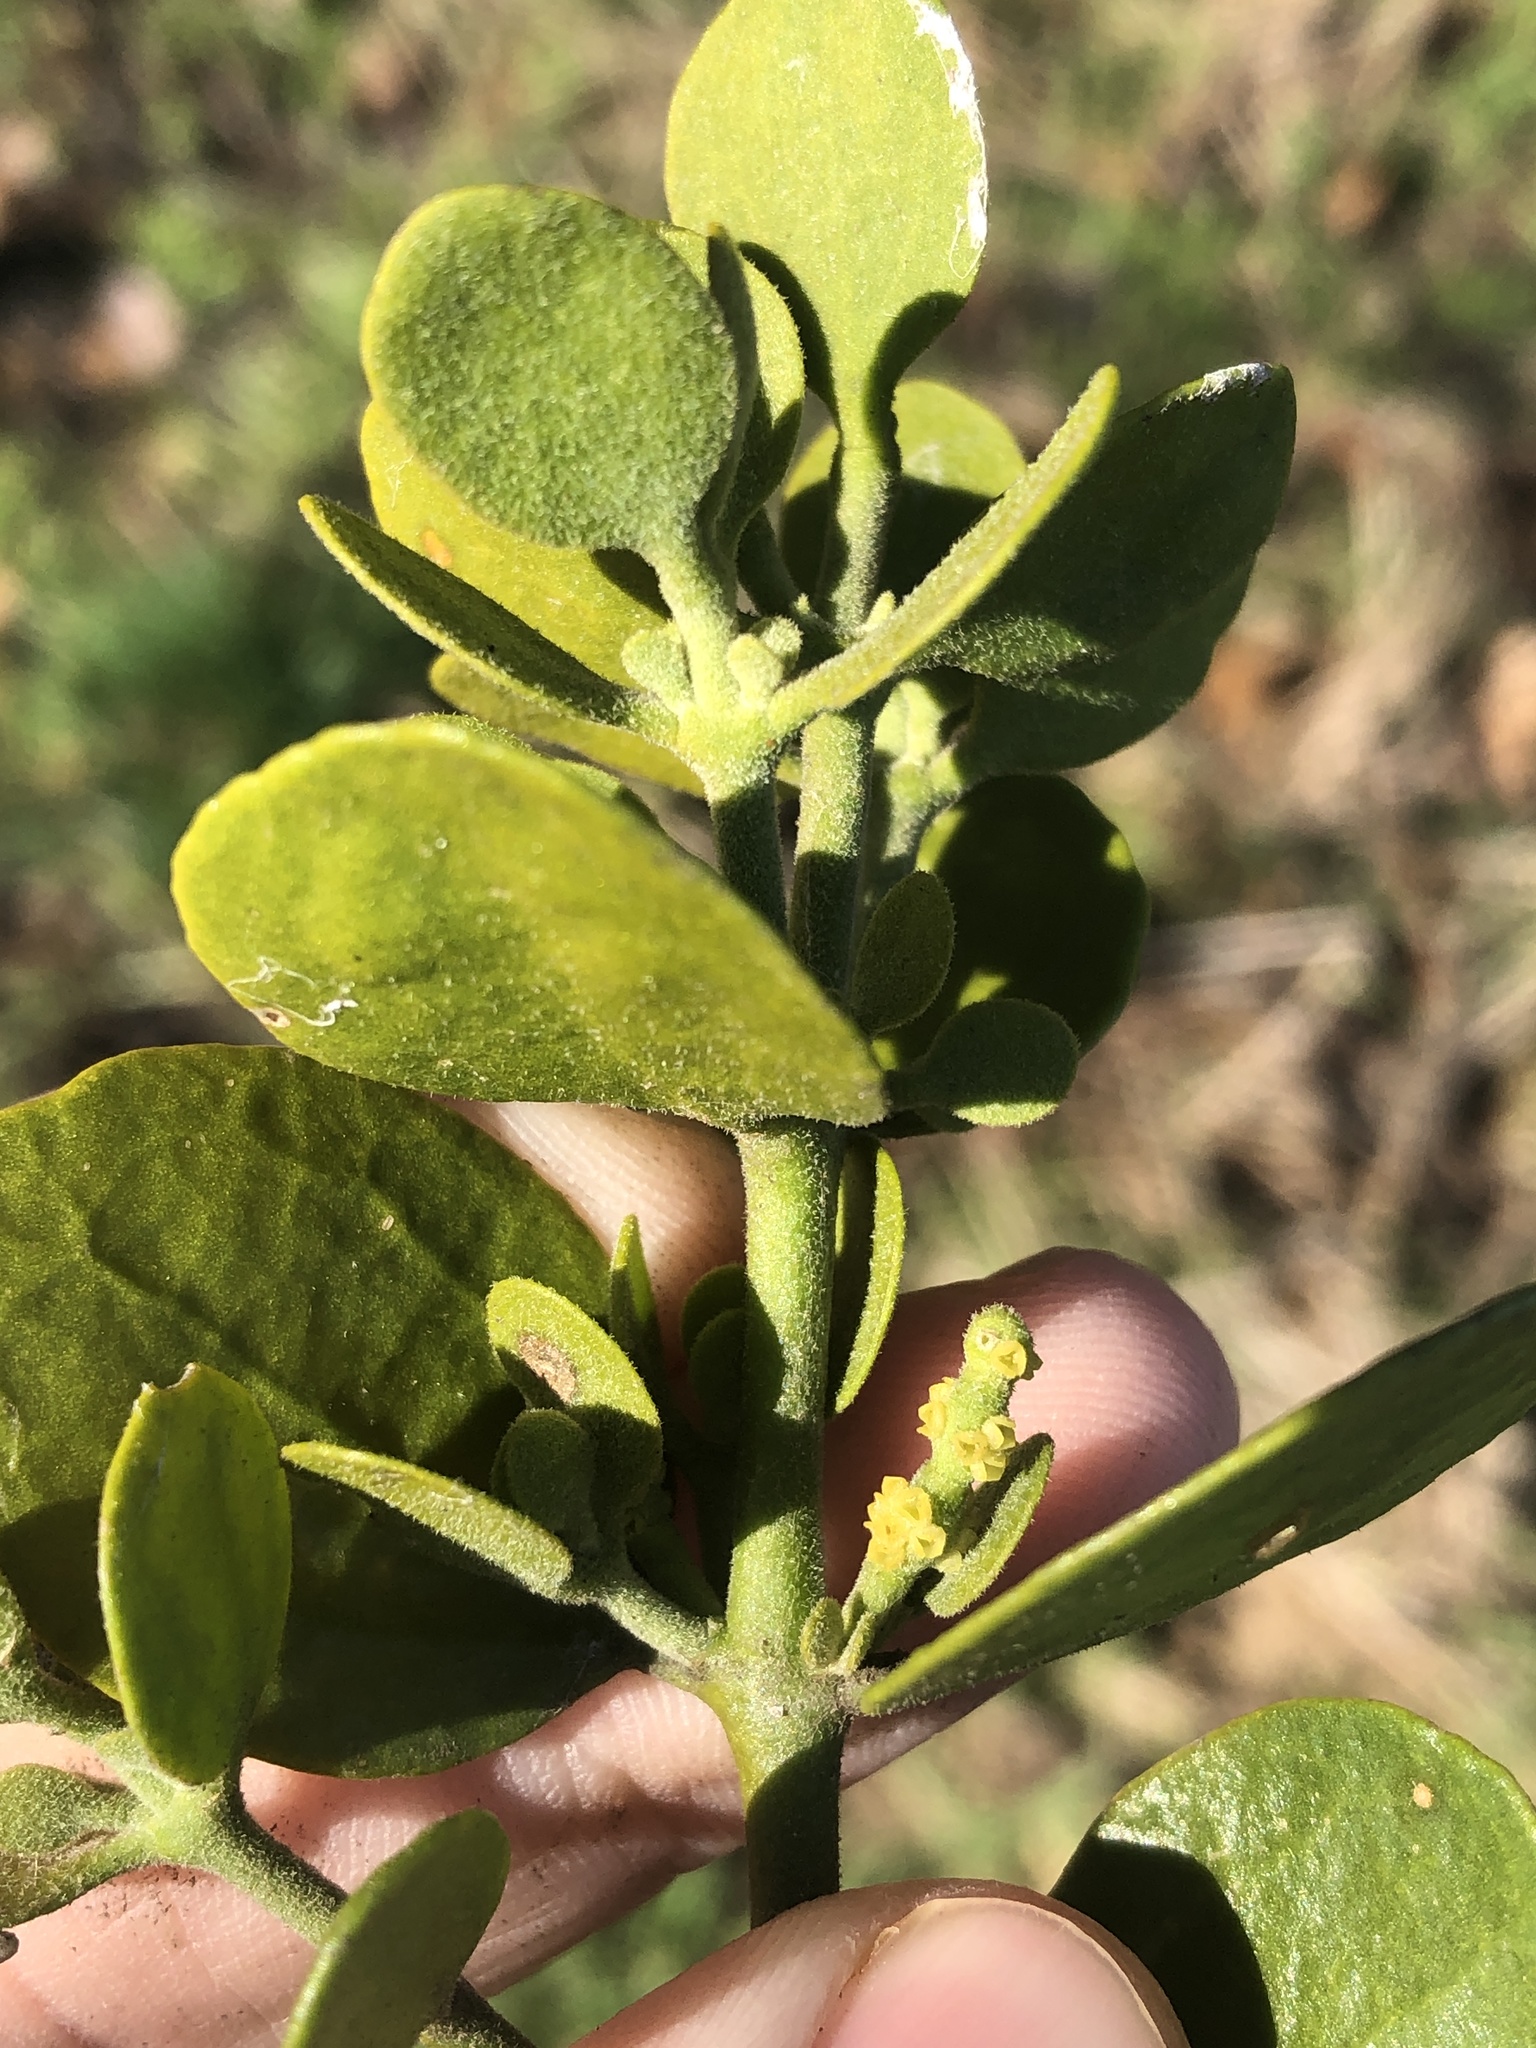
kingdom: Plantae
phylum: Tracheophyta
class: Magnoliopsida
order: Santalales
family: Viscaceae
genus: Phoradendron
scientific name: Phoradendron leucarpum
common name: Pacific mistletoe
